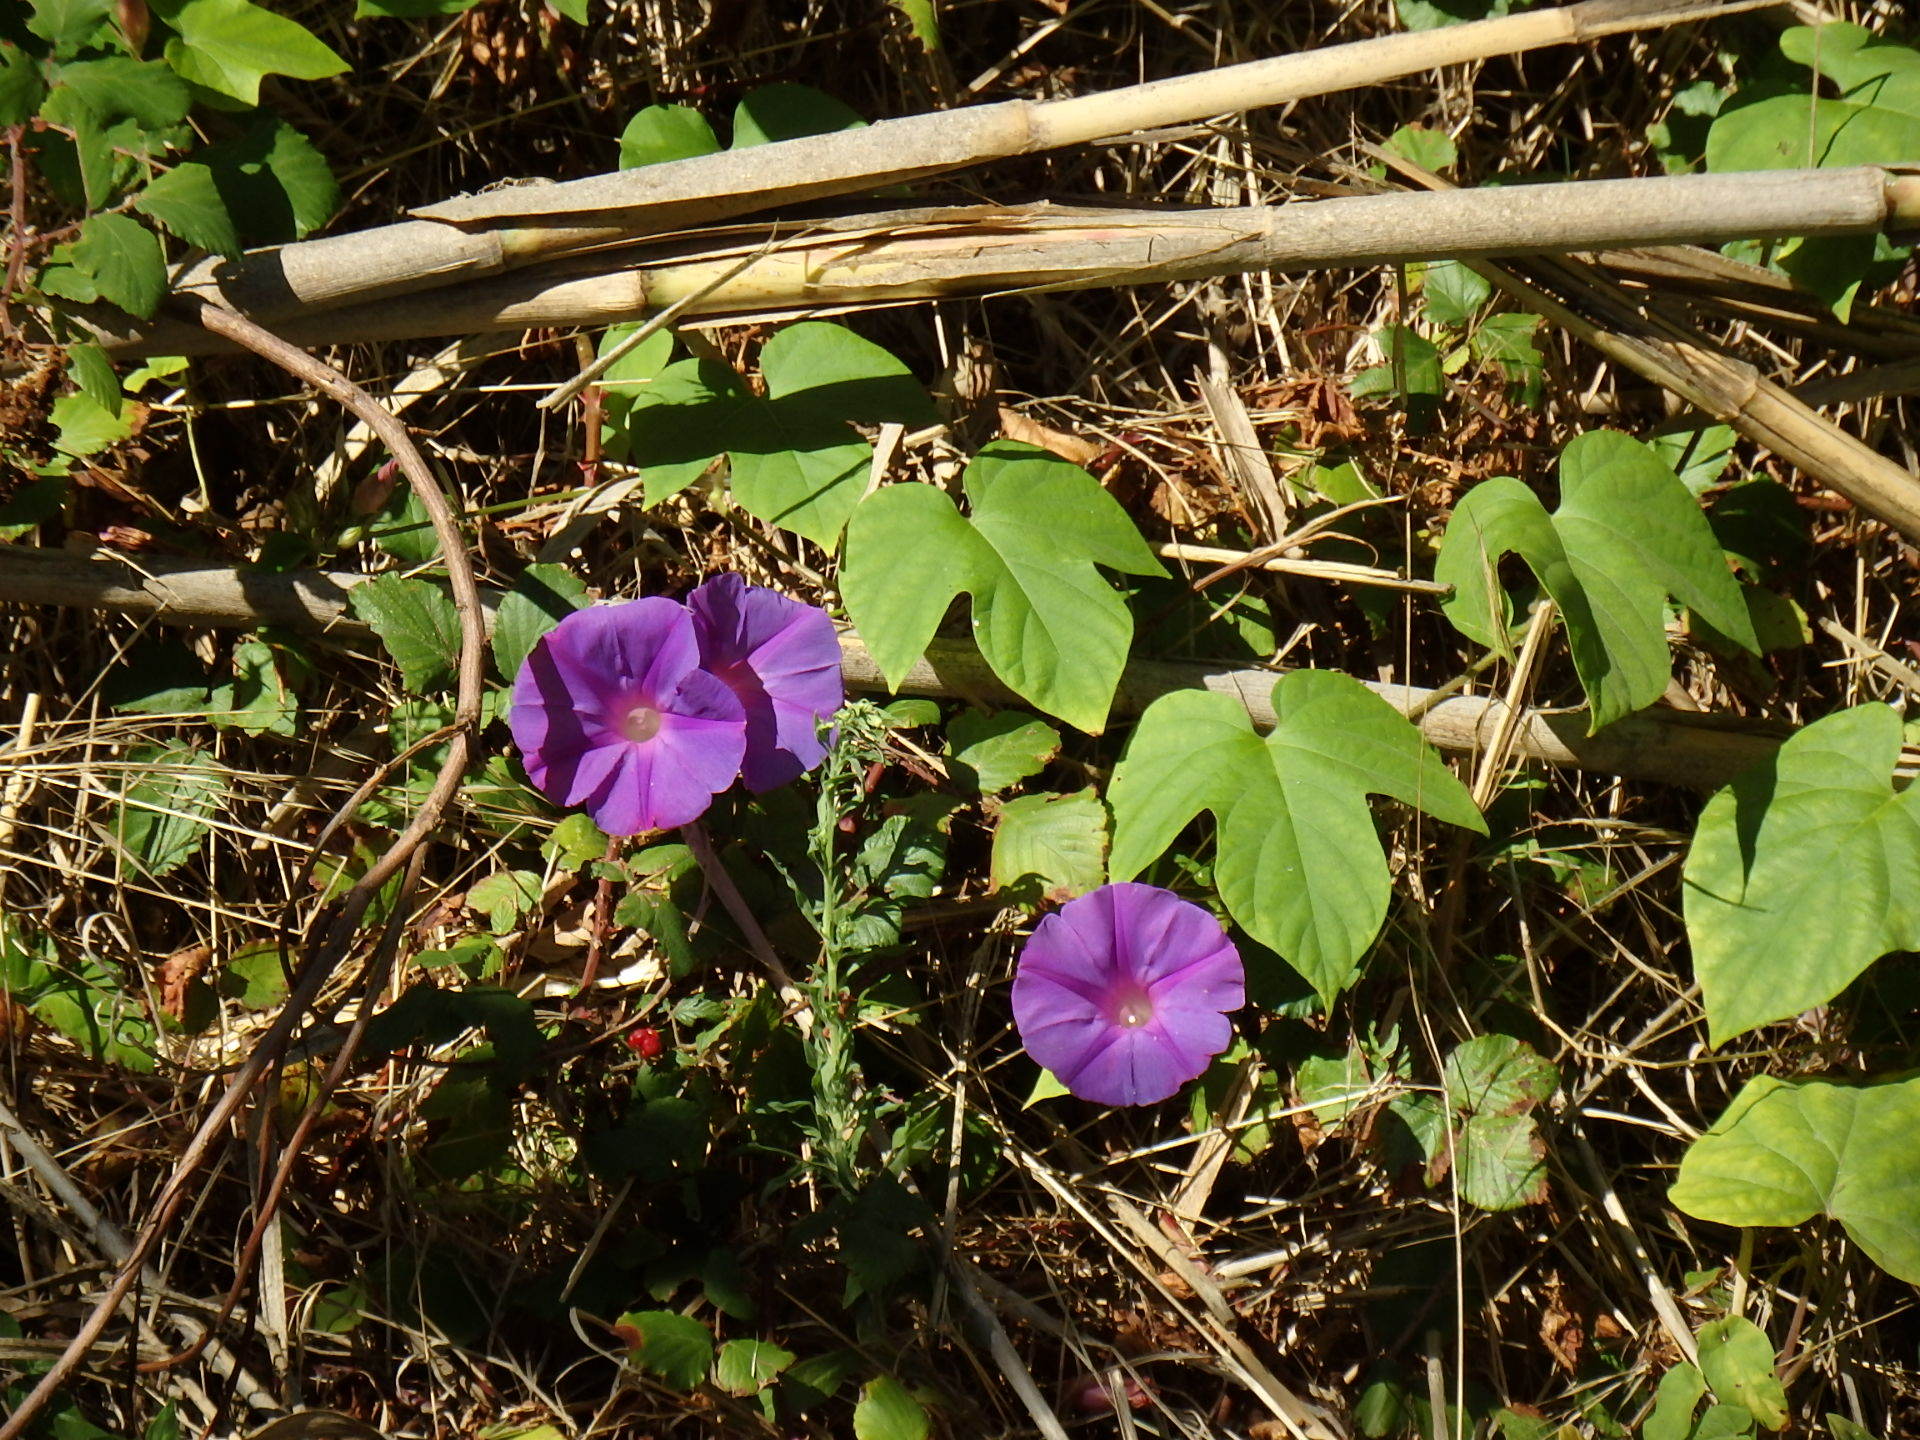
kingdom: Plantae
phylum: Tracheophyta
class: Magnoliopsida
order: Solanales
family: Convolvulaceae
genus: Ipomoea
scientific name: Ipomoea indica
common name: Blue dawnflower
